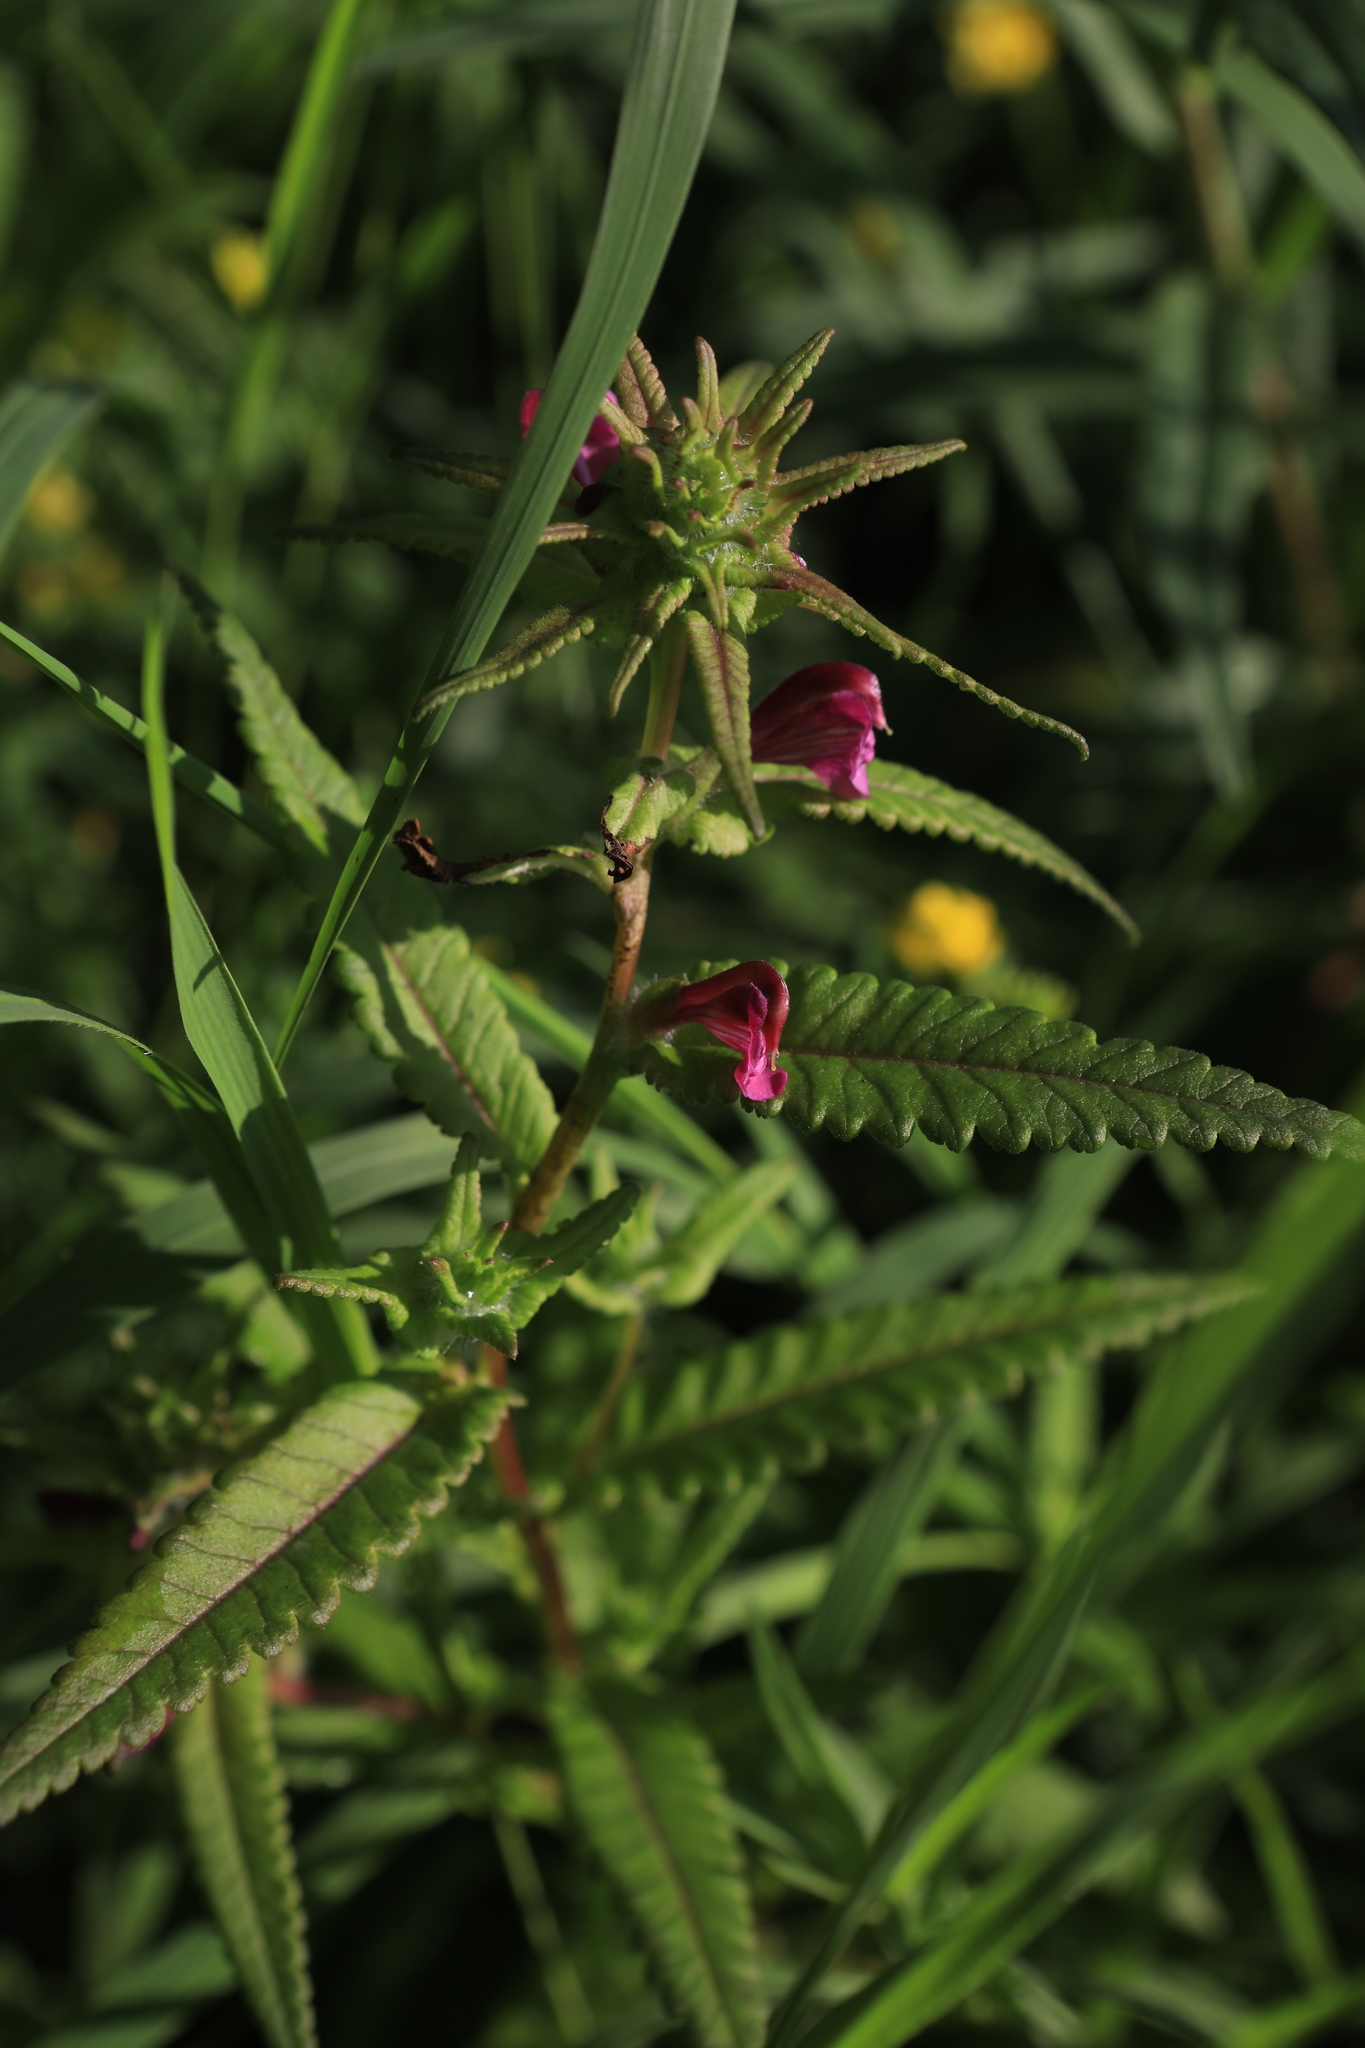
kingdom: Plantae
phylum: Tracheophyta
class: Magnoliopsida
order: Lamiales
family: Orobanchaceae
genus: Pedicularis
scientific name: Pedicularis resupinata
